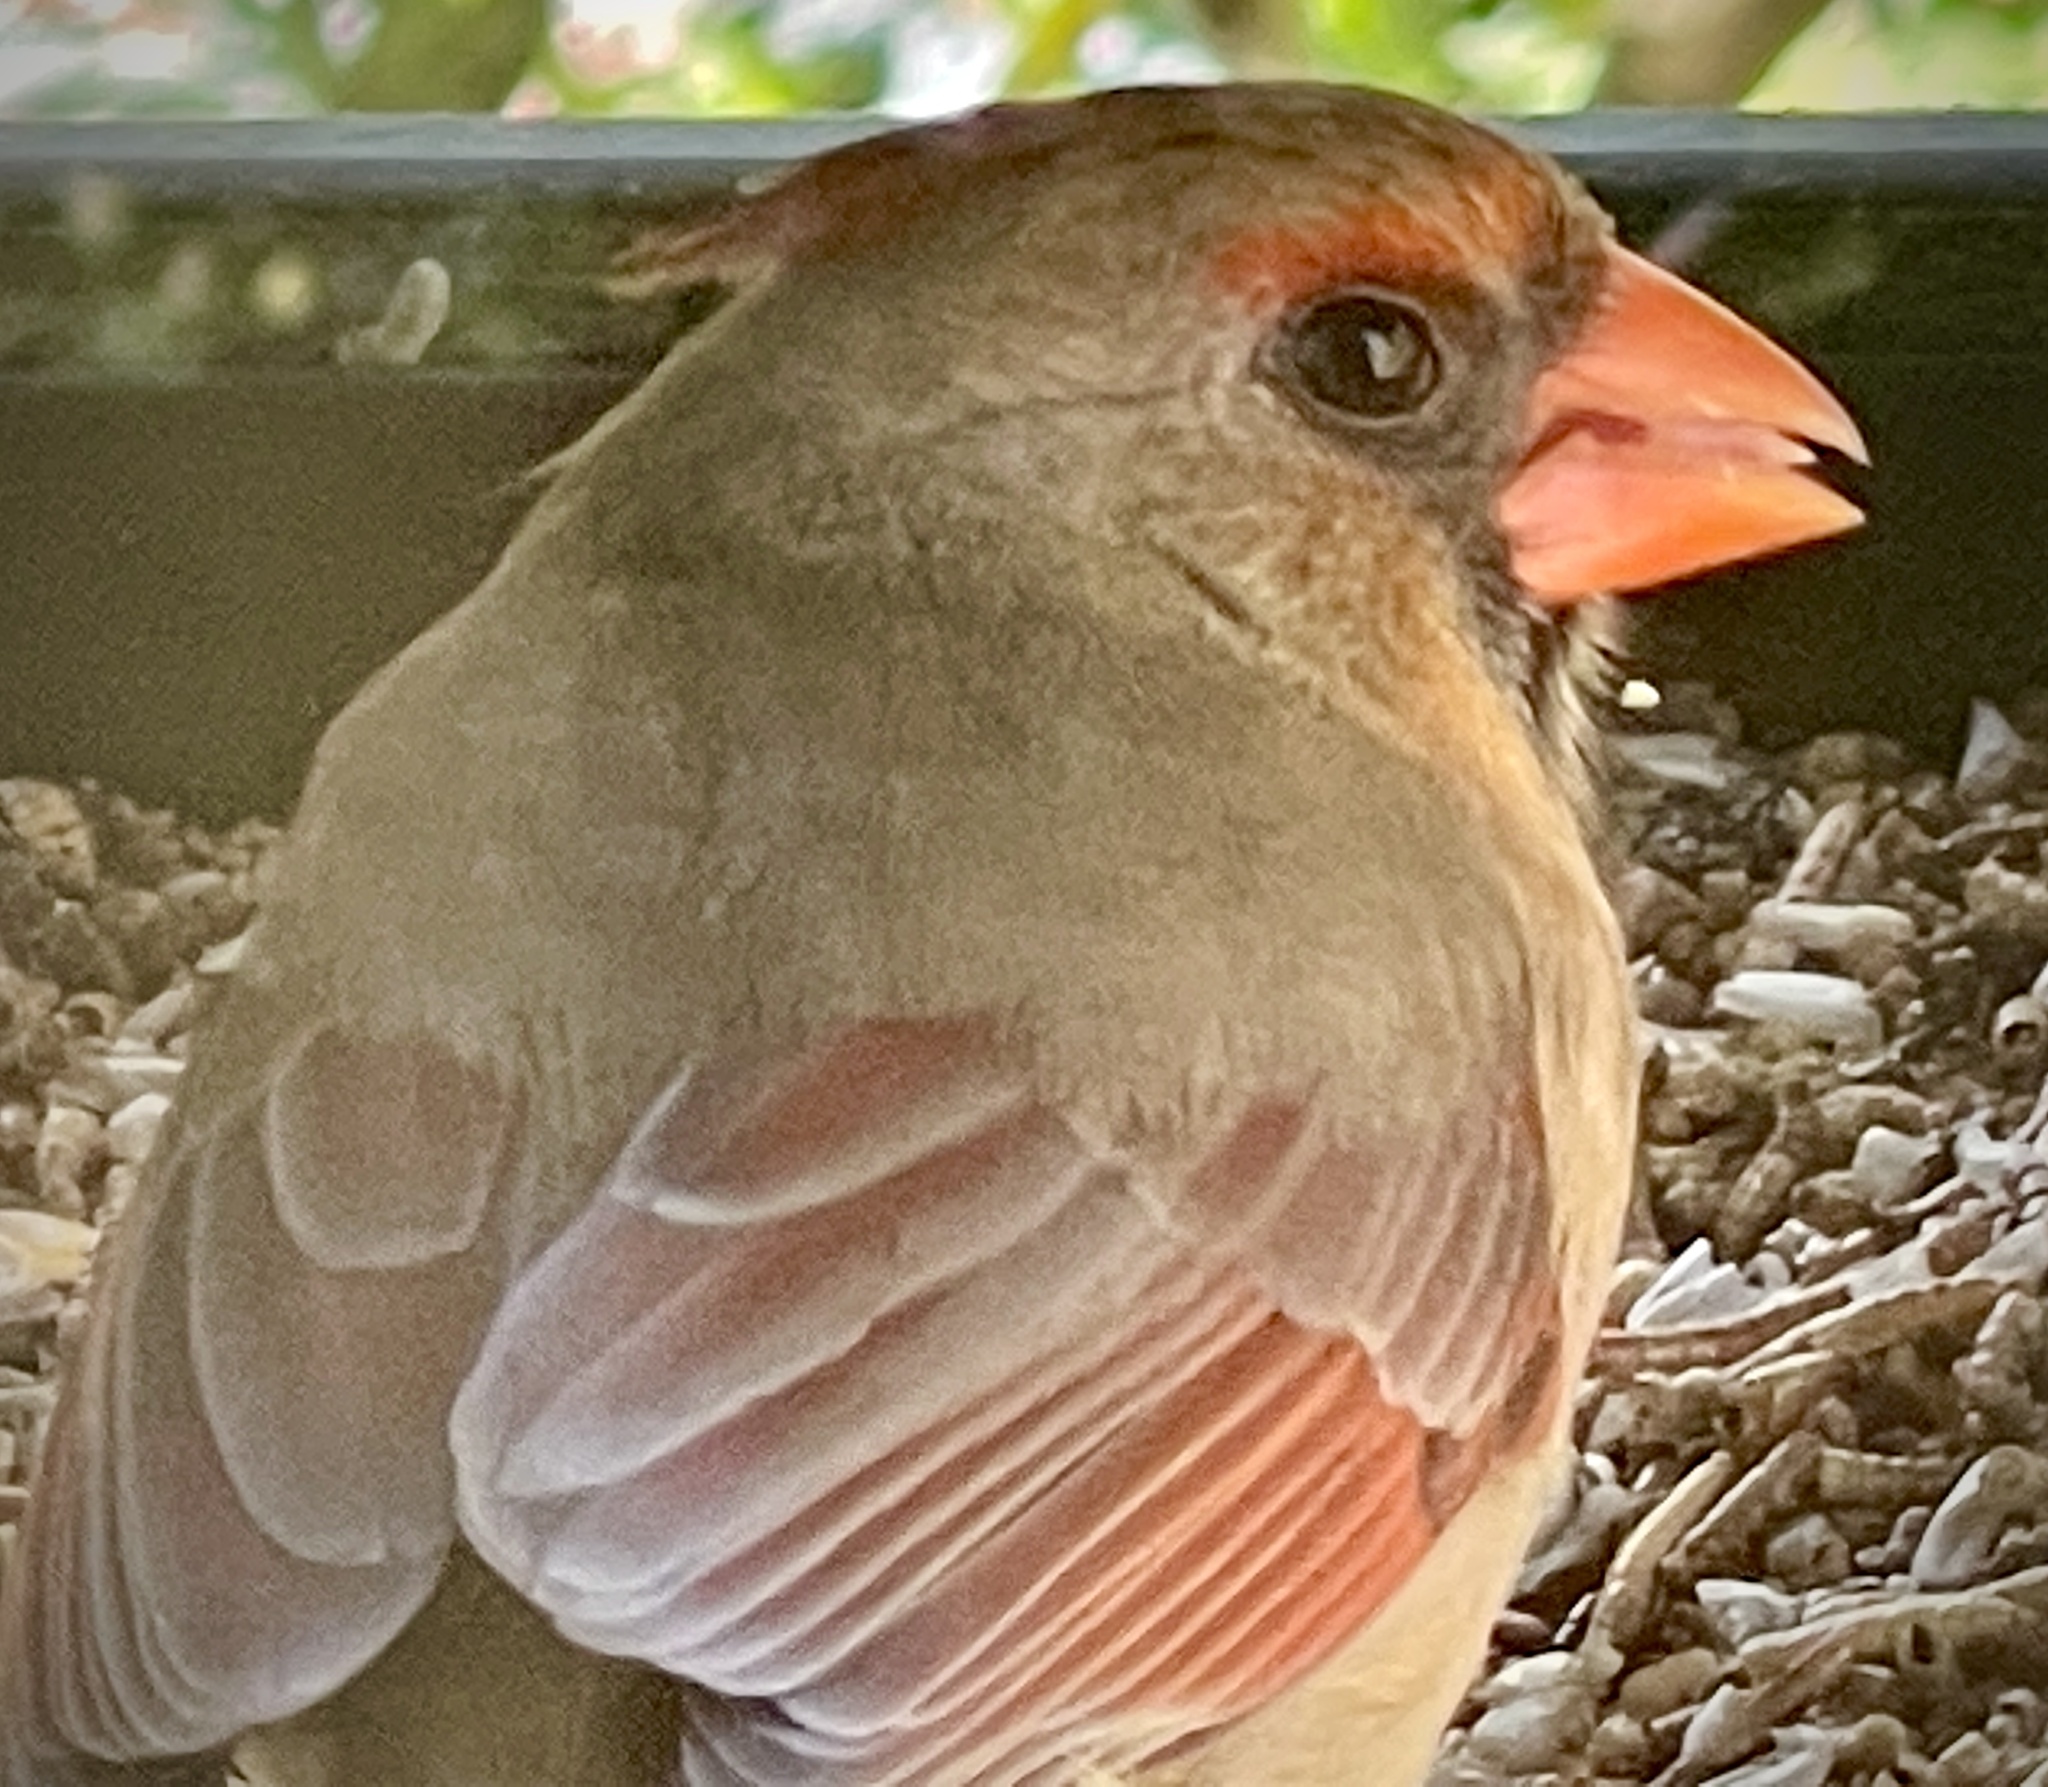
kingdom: Animalia
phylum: Chordata
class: Aves
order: Passeriformes
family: Cardinalidae
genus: Cardinalis
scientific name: Cardinalis cardinalis
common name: Northern cardinal
